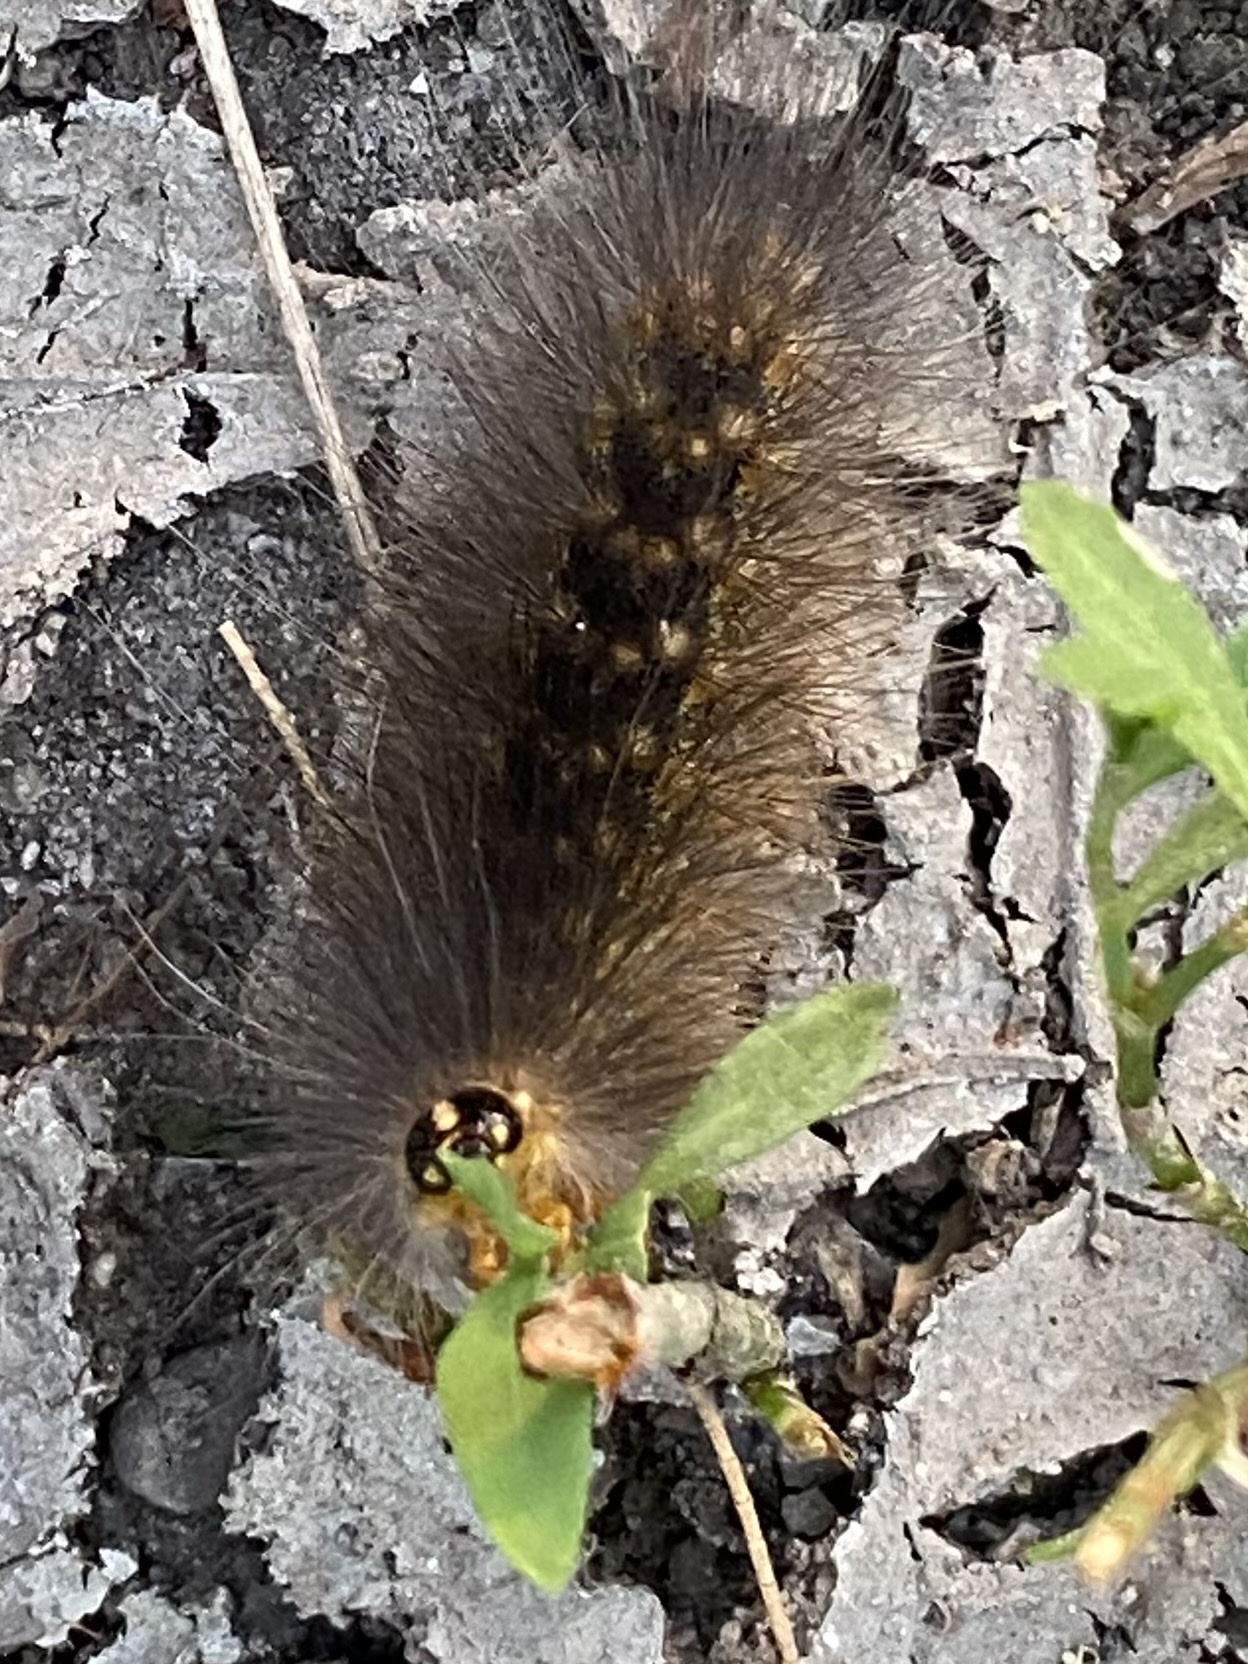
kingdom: Animalia
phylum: Arthropoda
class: Insecta
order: Lepidoptera
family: Erebidae
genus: Estigmene
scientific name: Estigmene acrea
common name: Salt marsh moth
